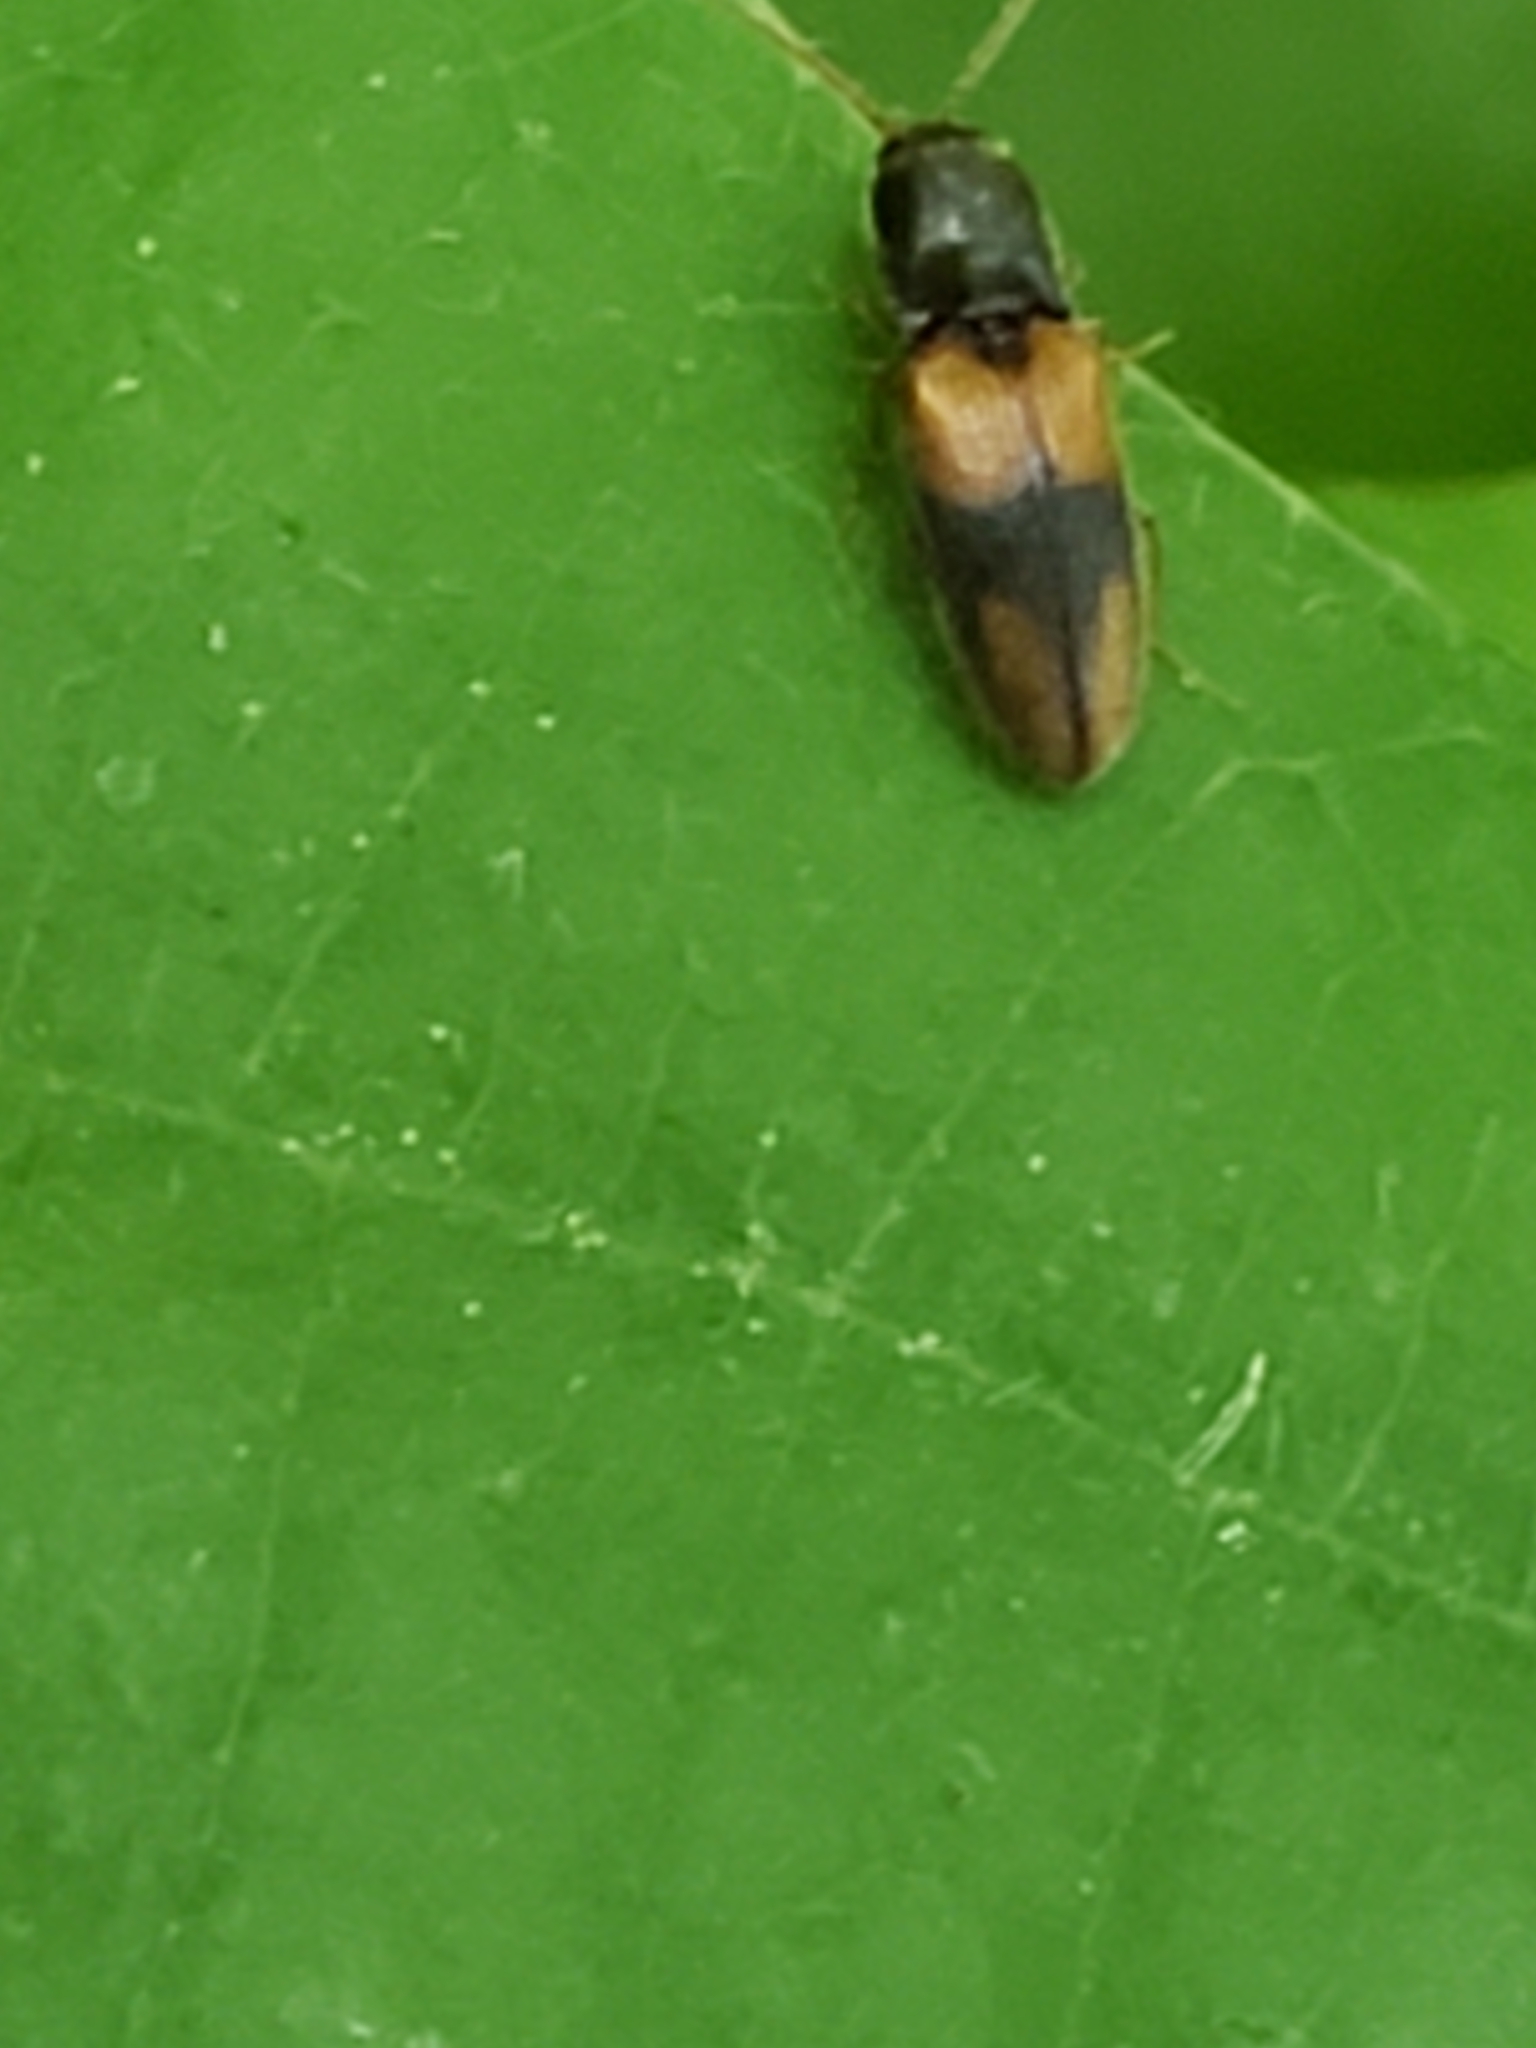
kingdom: Animalia
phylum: Arthropoda
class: Insecta
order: Coleoptera
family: Elateridae
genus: Horistonotus
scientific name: Horistonotus curiatus
